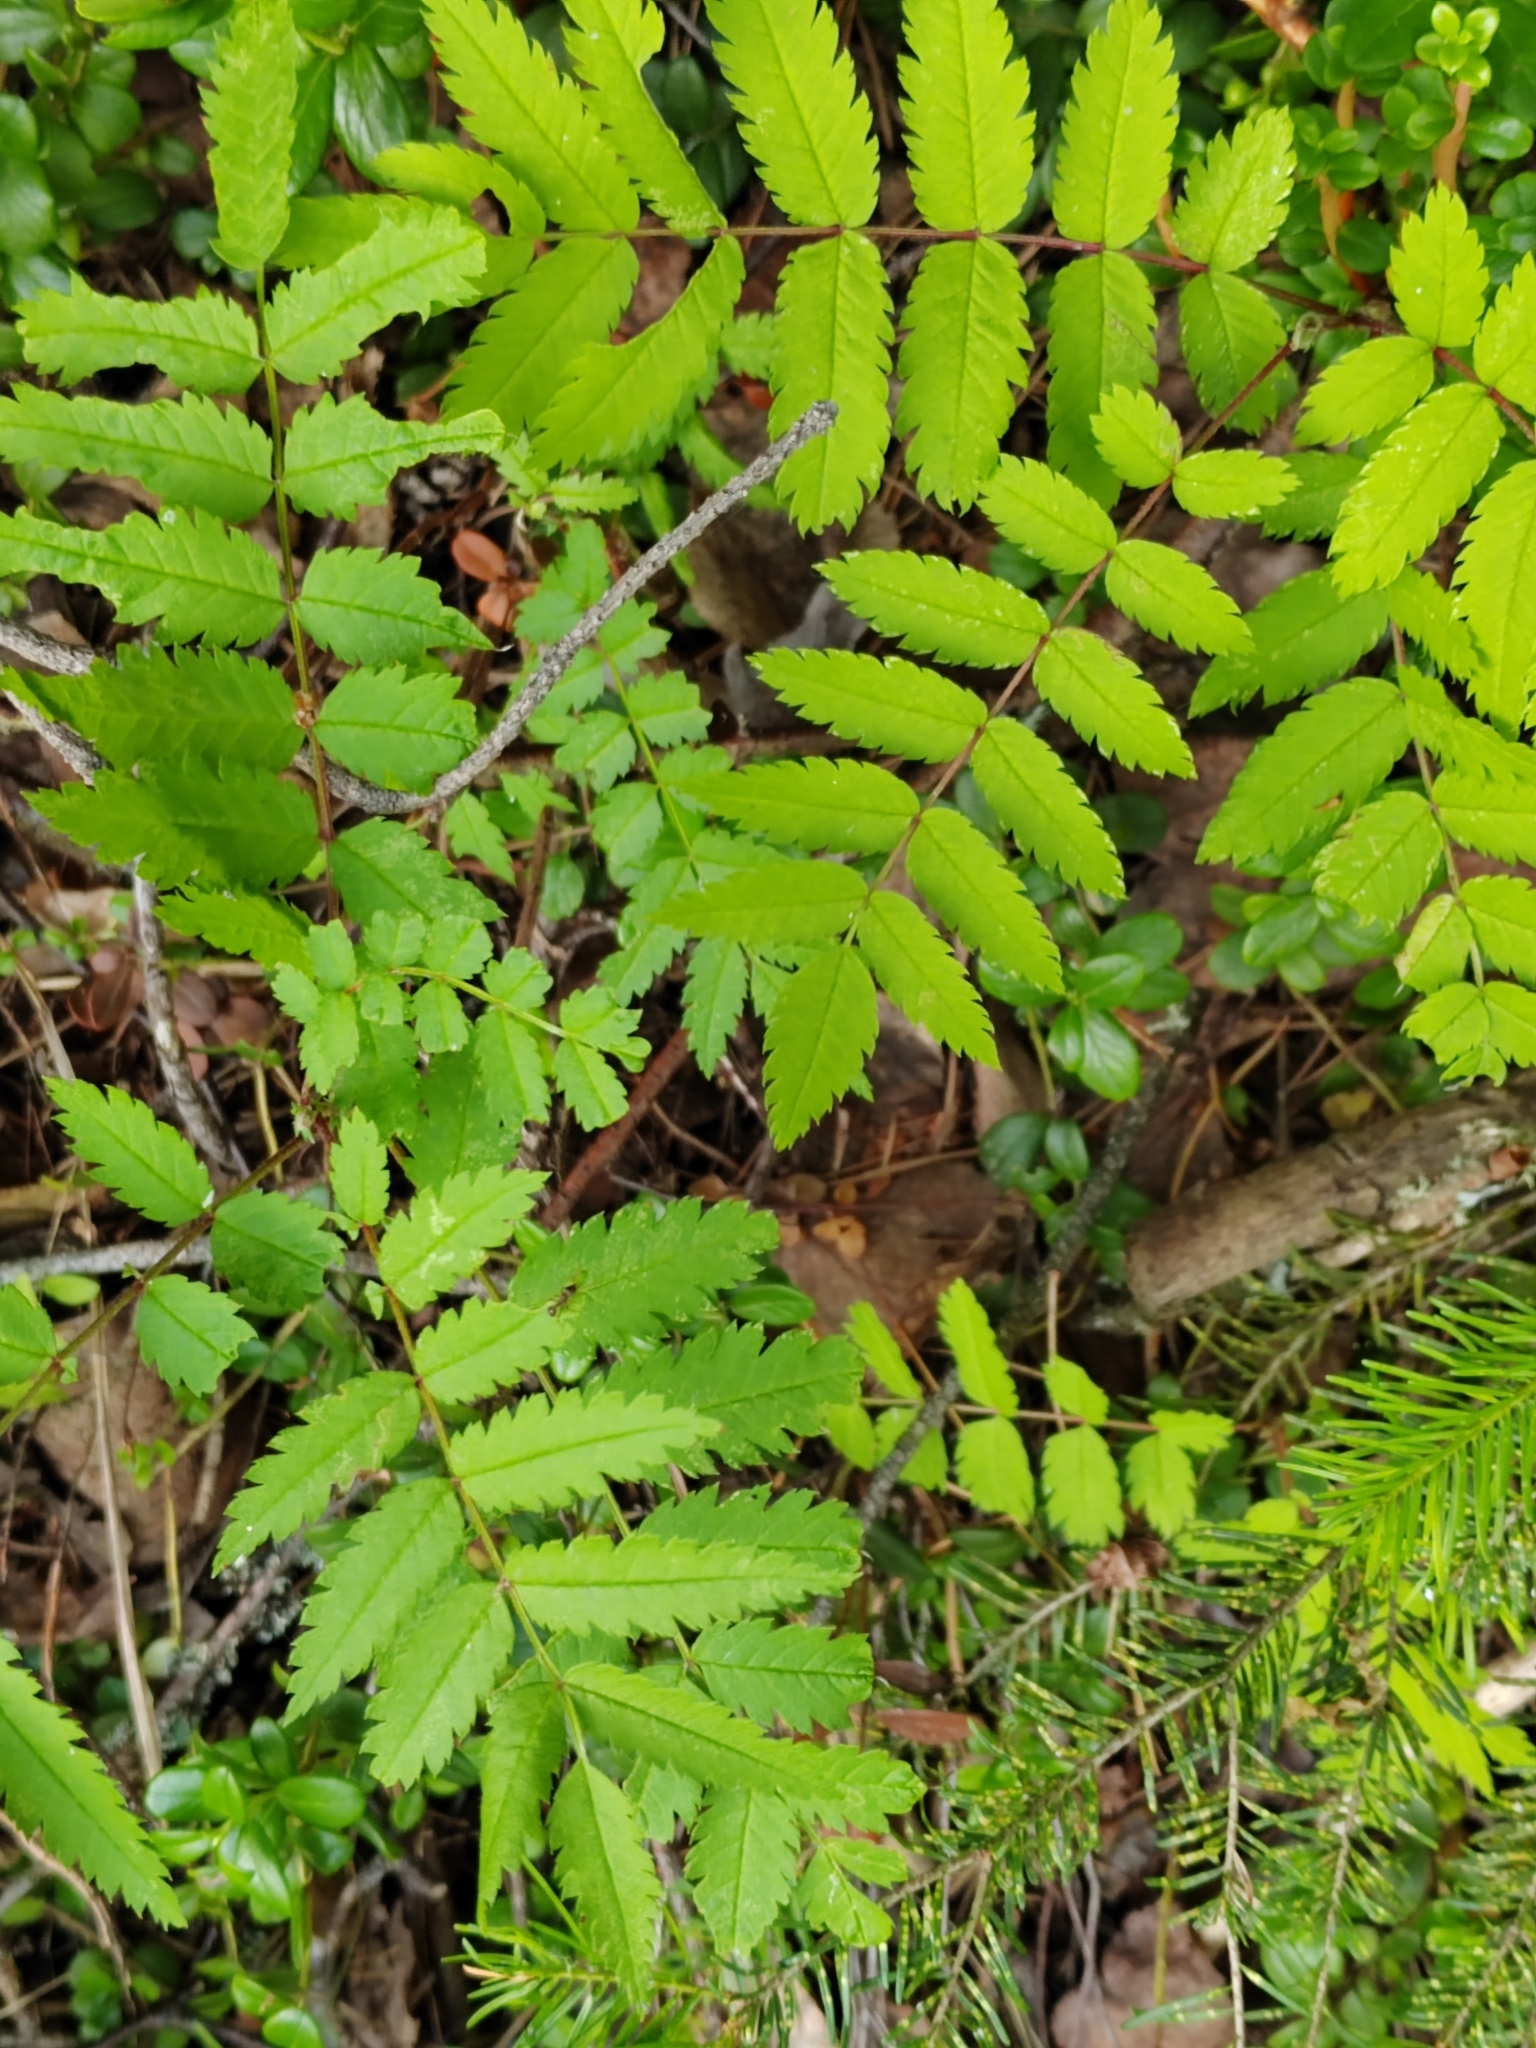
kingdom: Plantae
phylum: Tracheophyta
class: Magnoliopsida
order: Rosales
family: Rosaceae
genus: Sorbus
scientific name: Sorbus aucuparia
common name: Rowan
